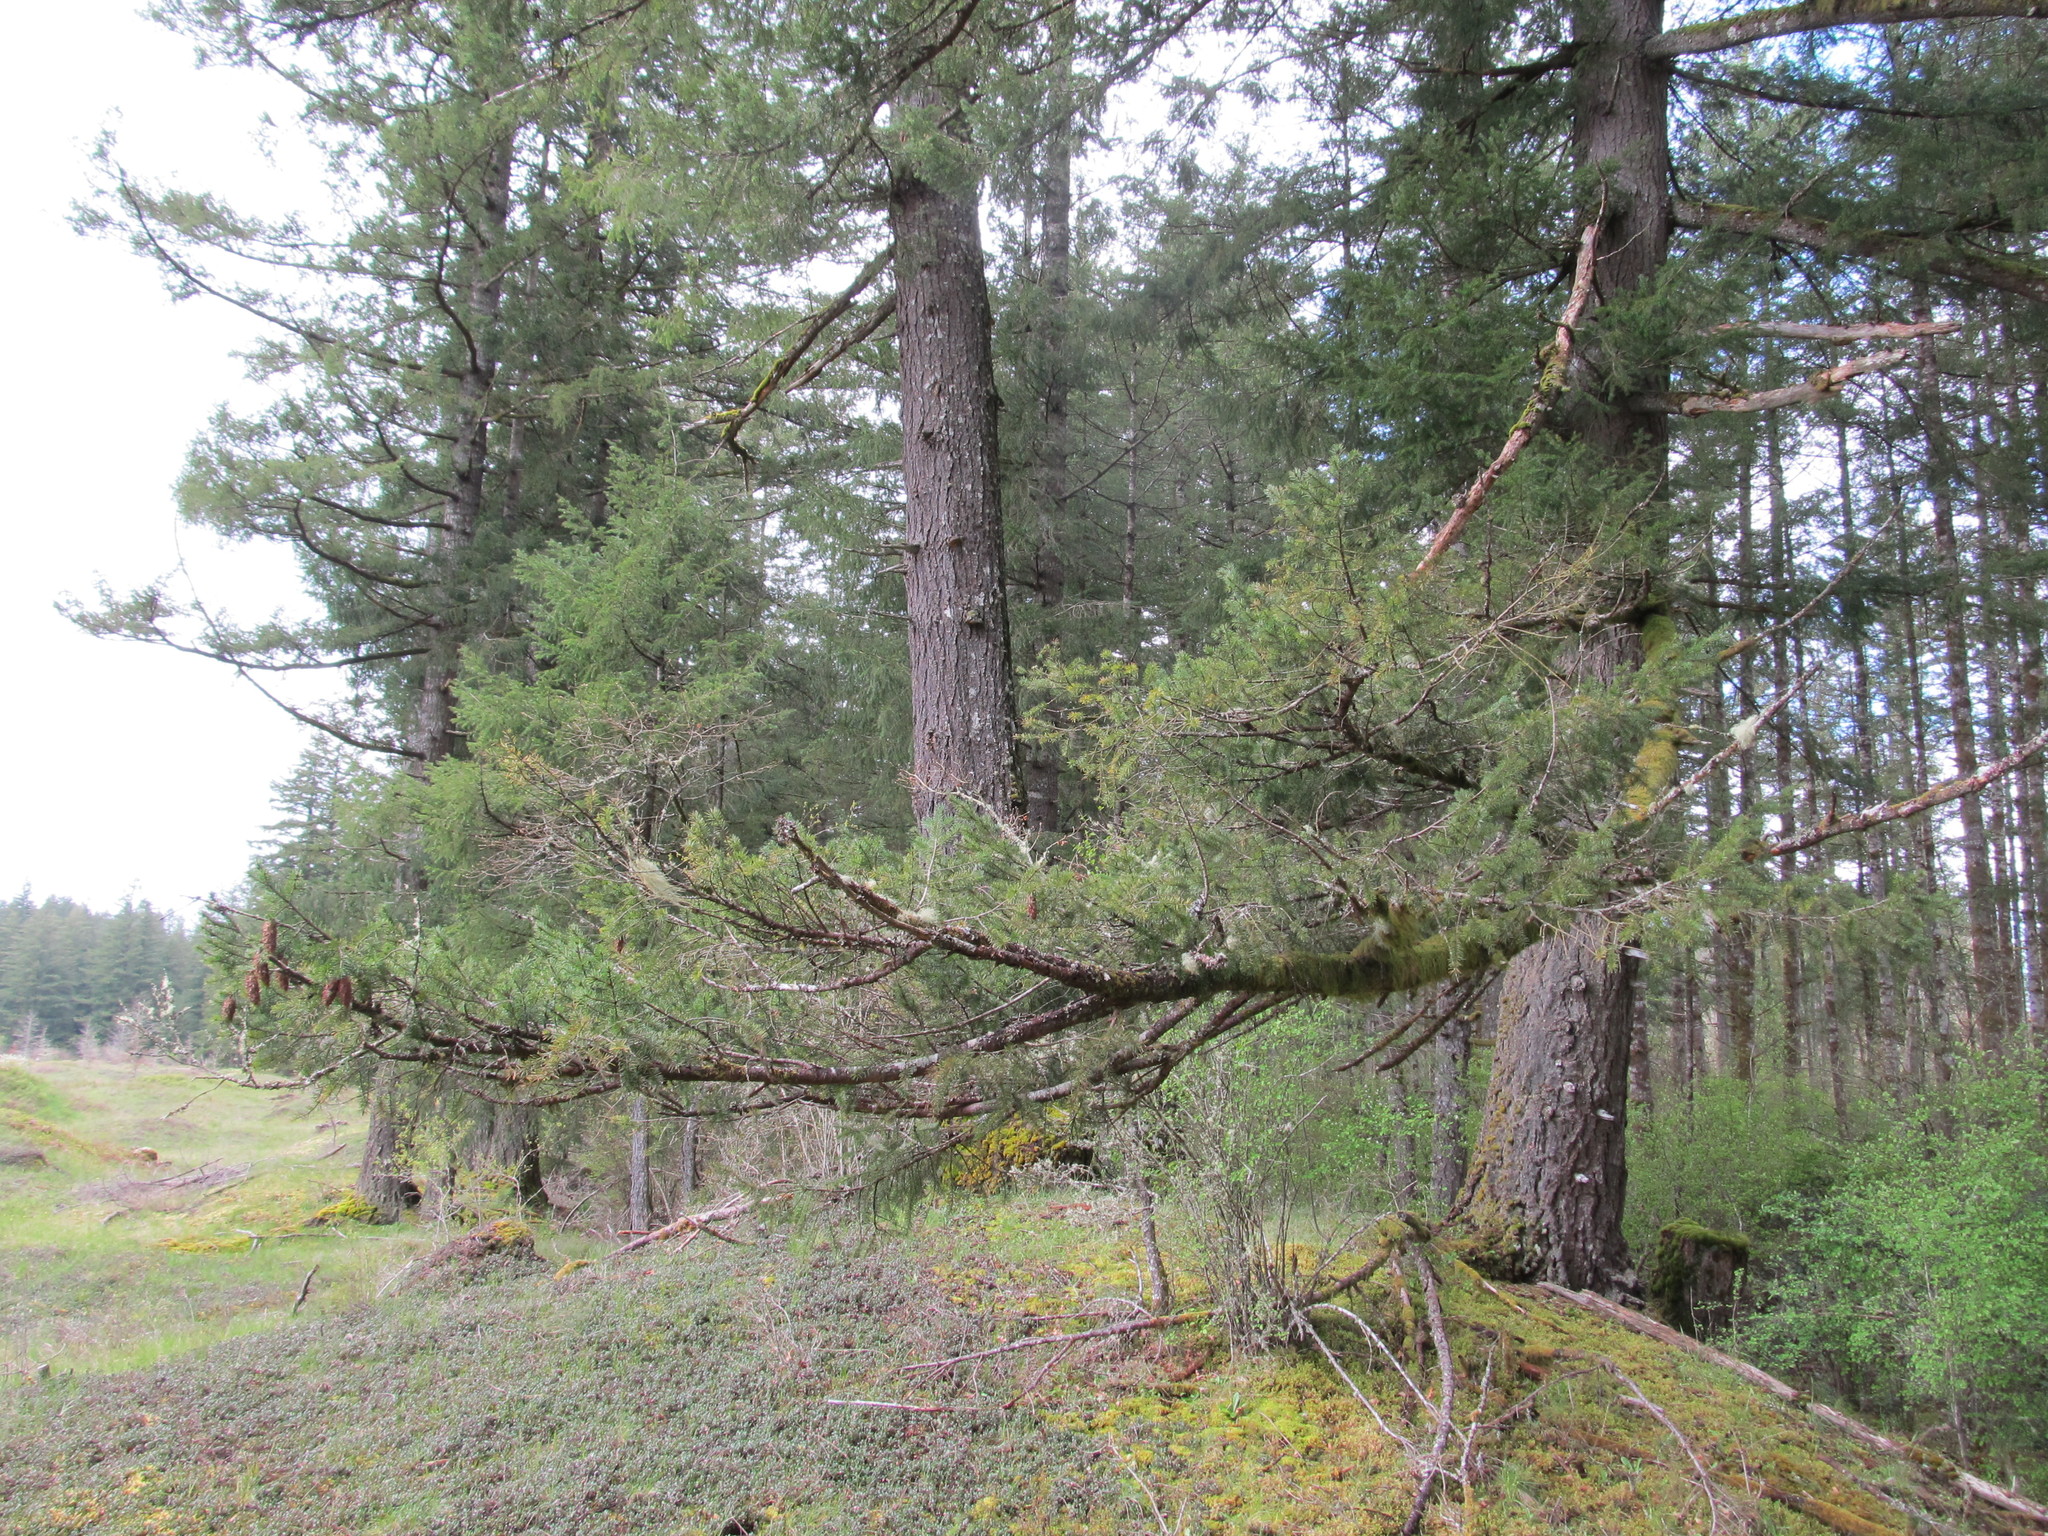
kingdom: Plantae
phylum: Tracheophyta
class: Pinopsida
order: Pinales
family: Pinaceae
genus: Pseudotsuga
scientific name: Pseudotsuga menziesii
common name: Douglas fir
